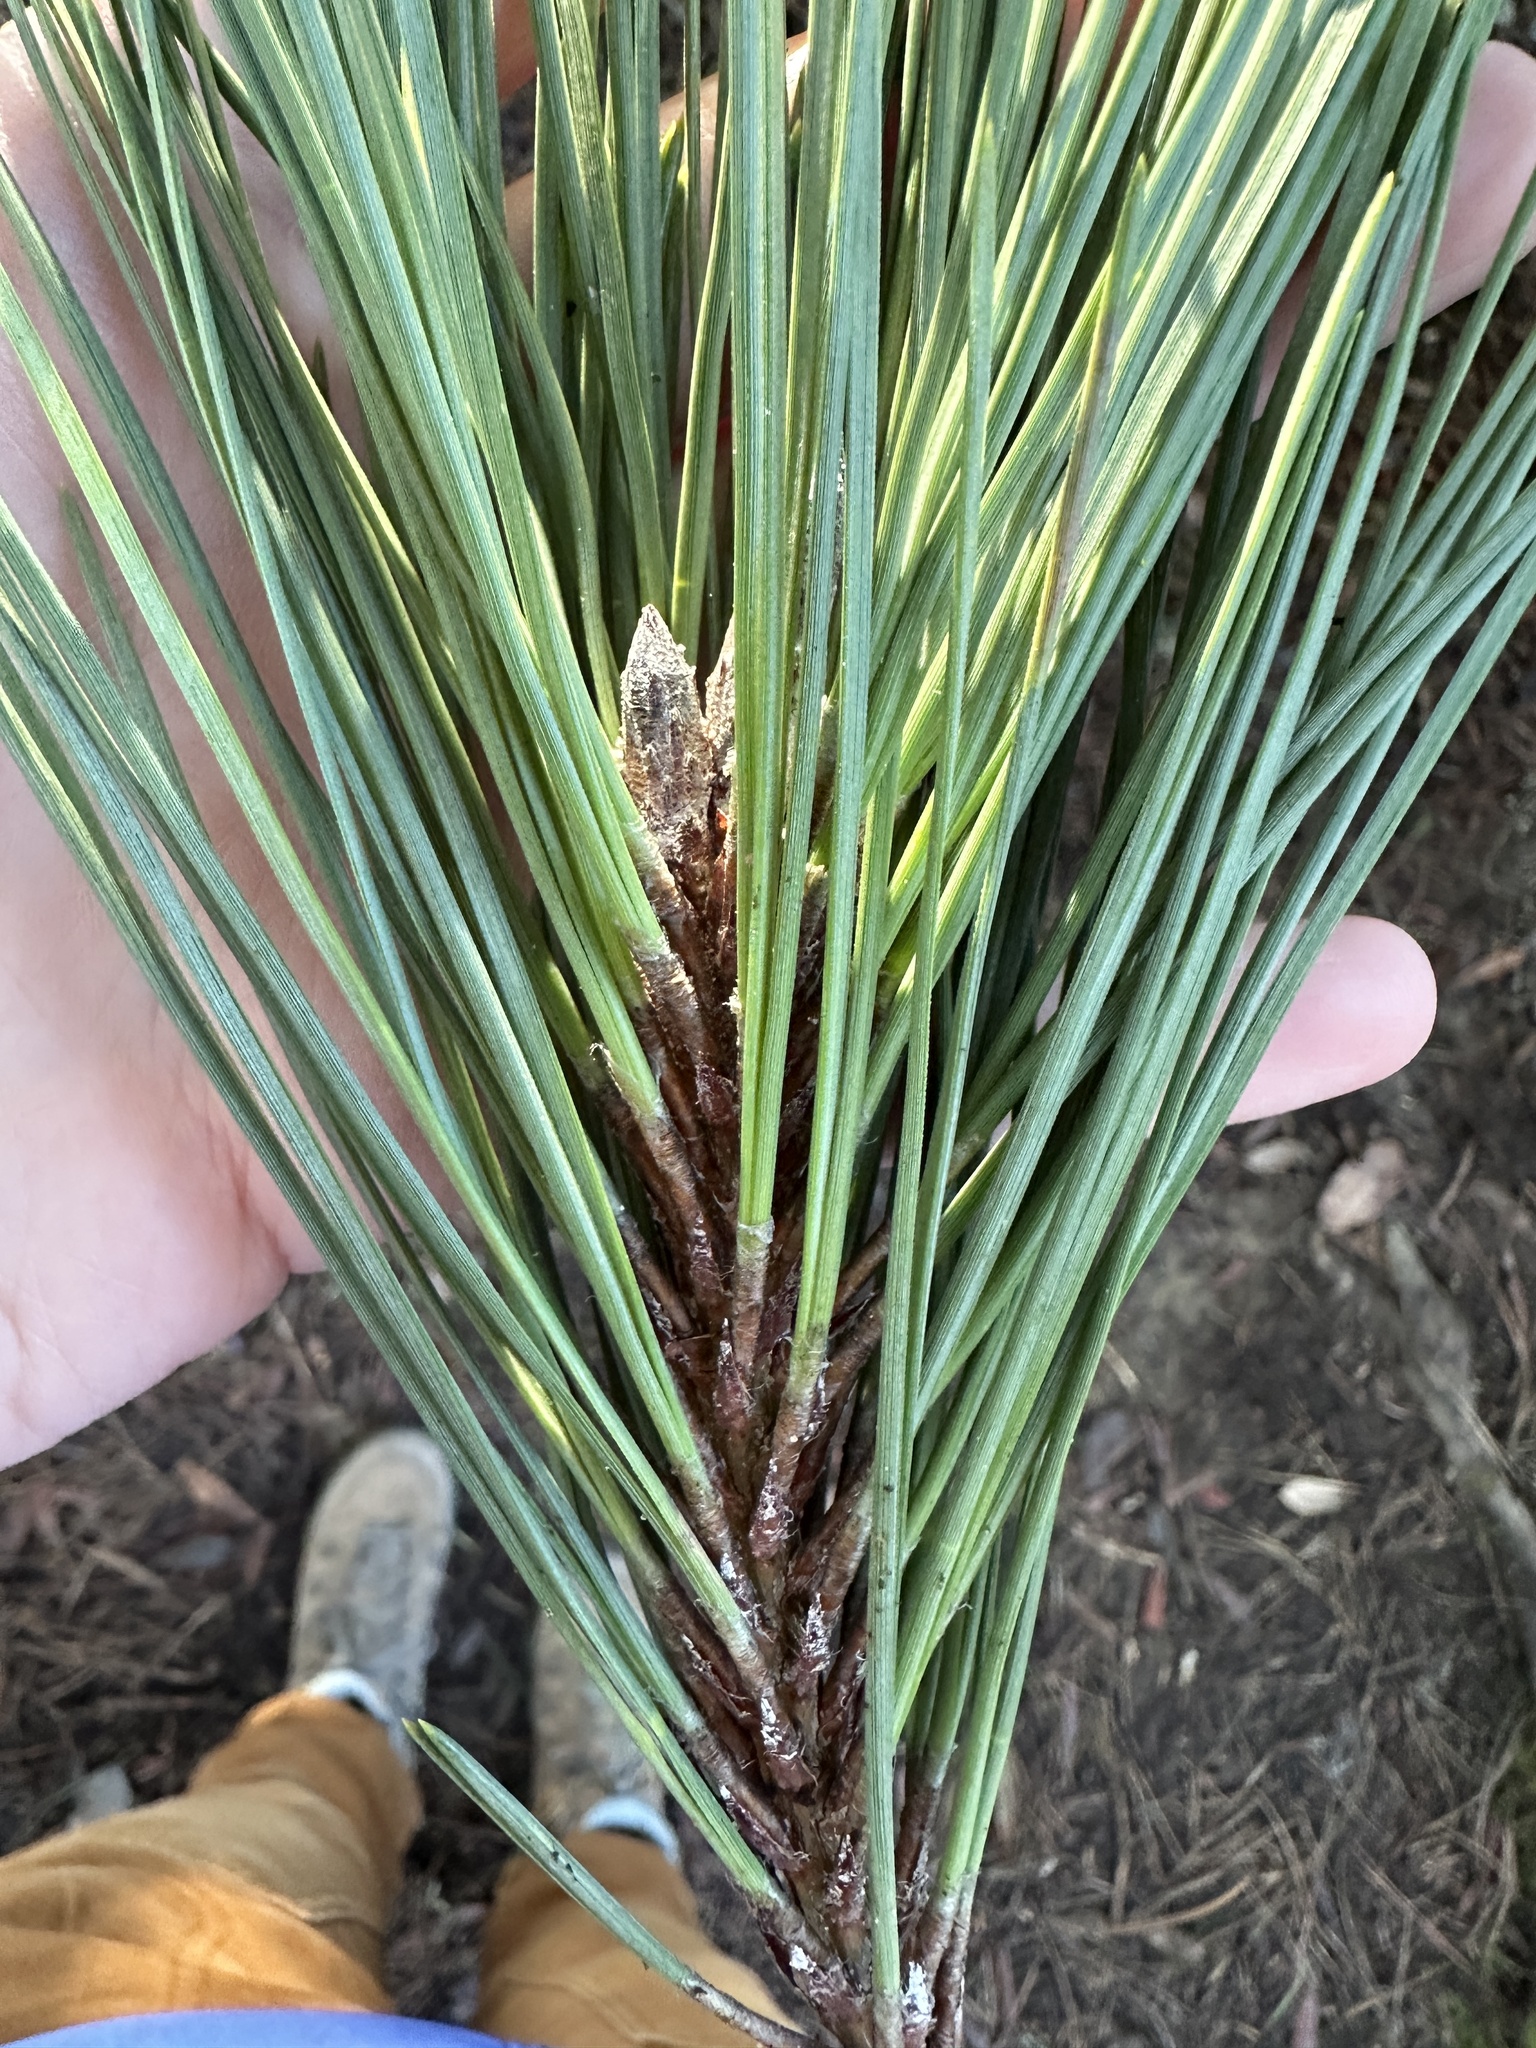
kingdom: Plantae
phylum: Tracheophyta
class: Pinopsida
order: Pinales
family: Pinaceae
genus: Pinus
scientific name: Pinus muricata
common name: Bishop pine
